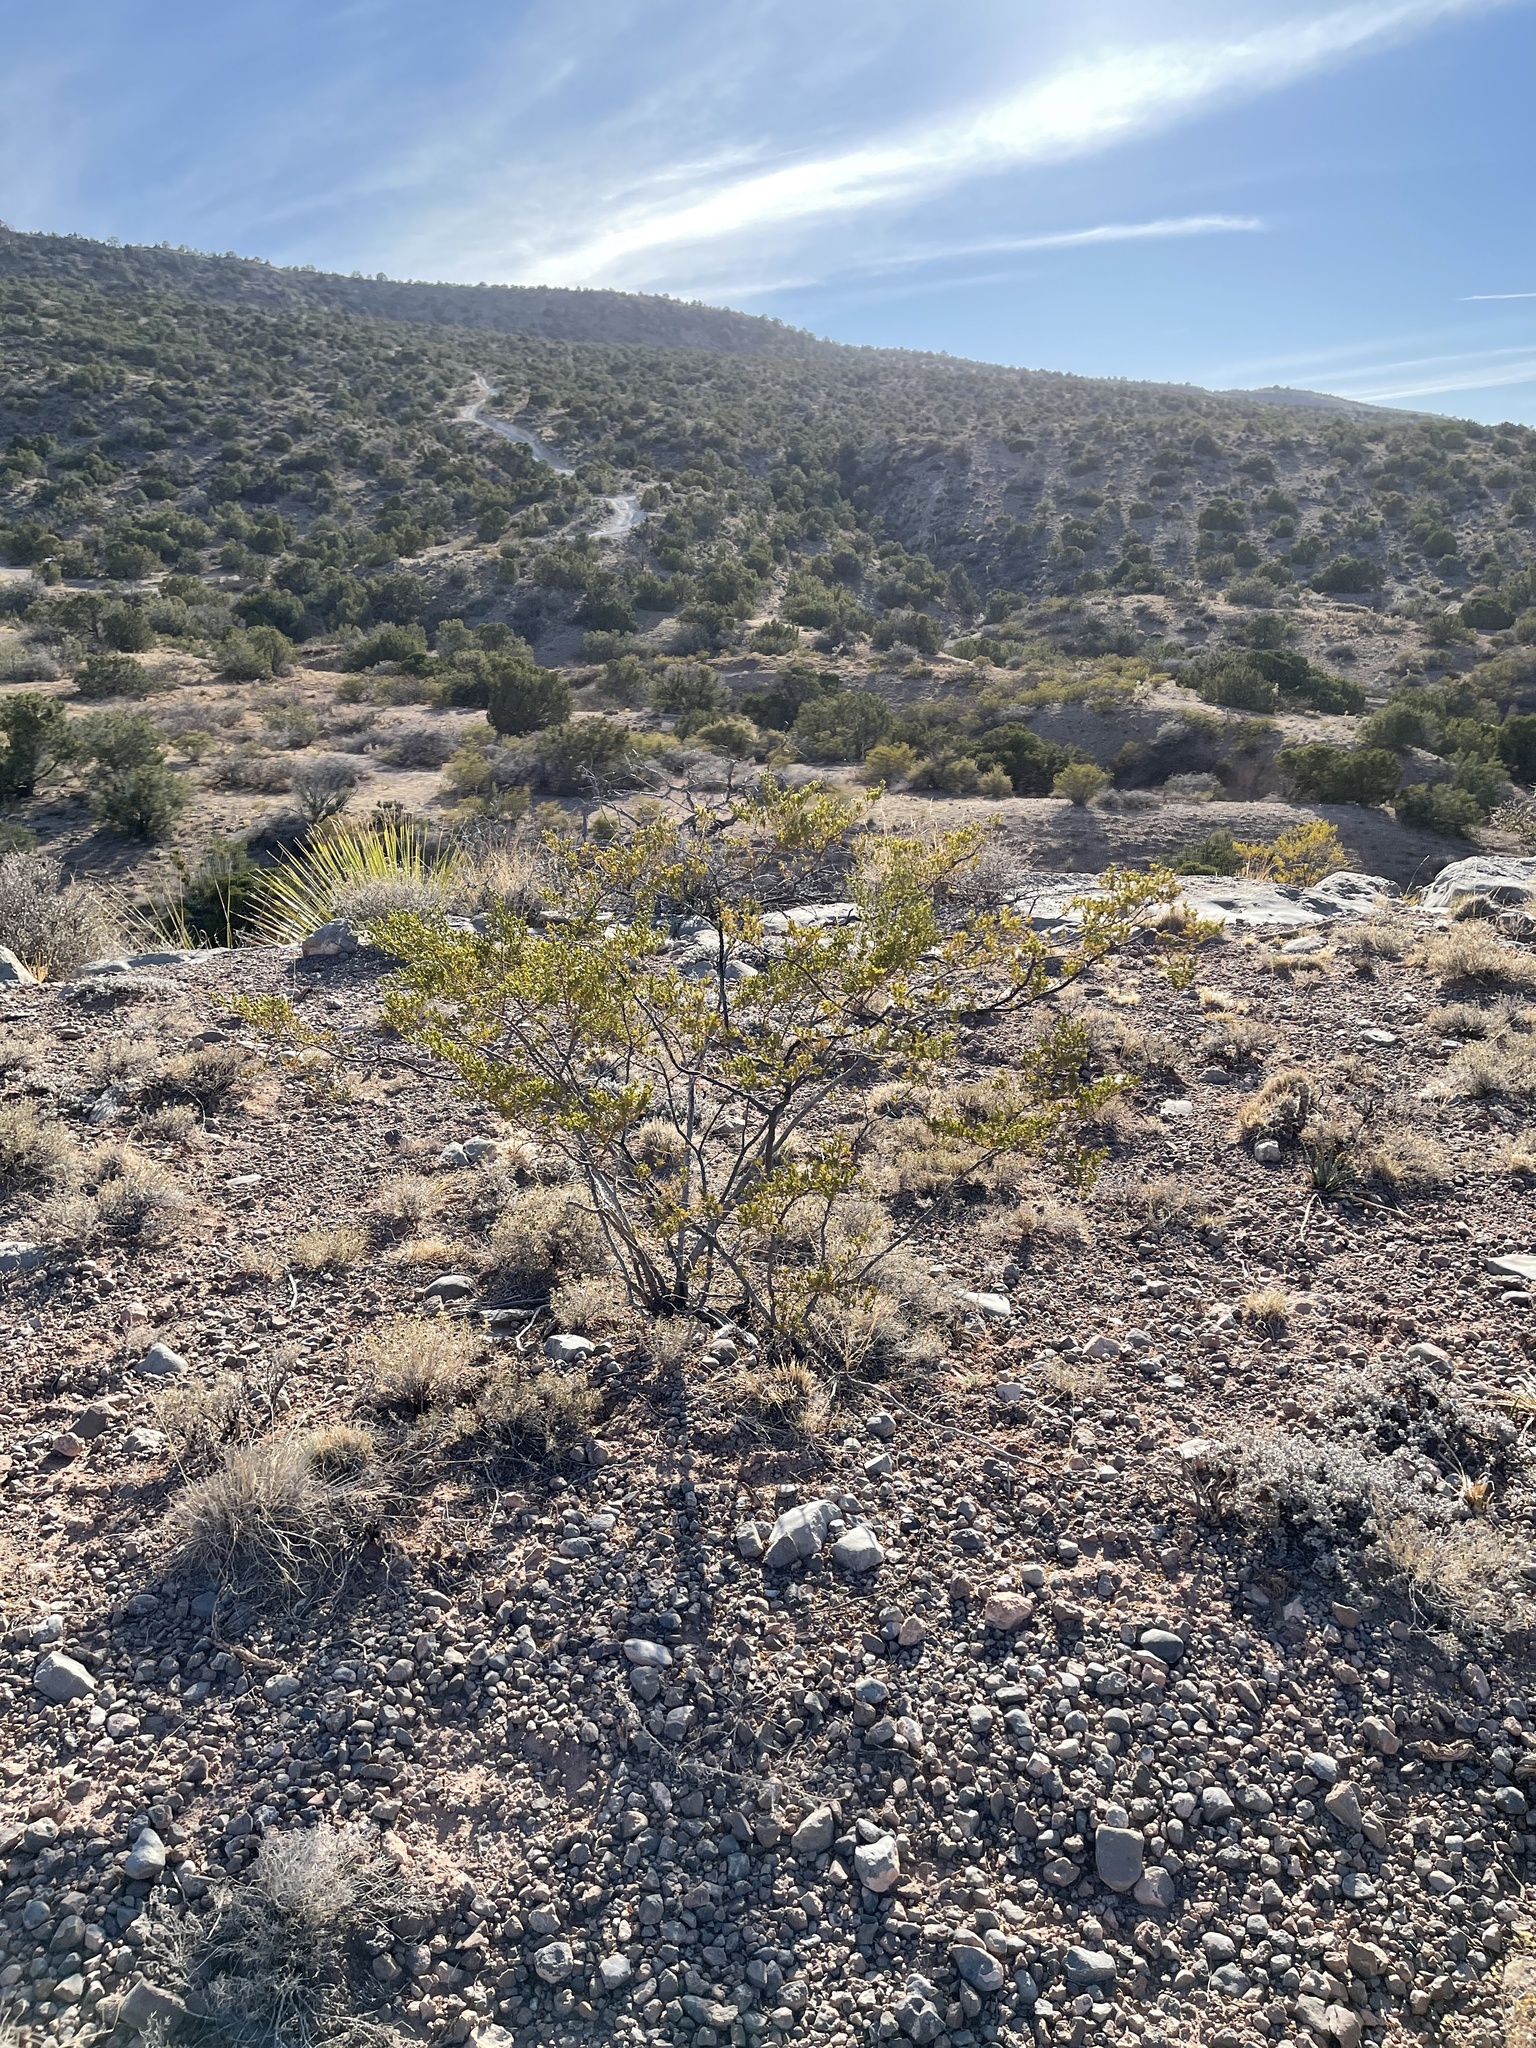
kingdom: Plantae
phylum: Tracheophyta
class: Magnoliopsida
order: Zygophyllales
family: Zygophyllaceae
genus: Larrea
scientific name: Larrea tridentata
